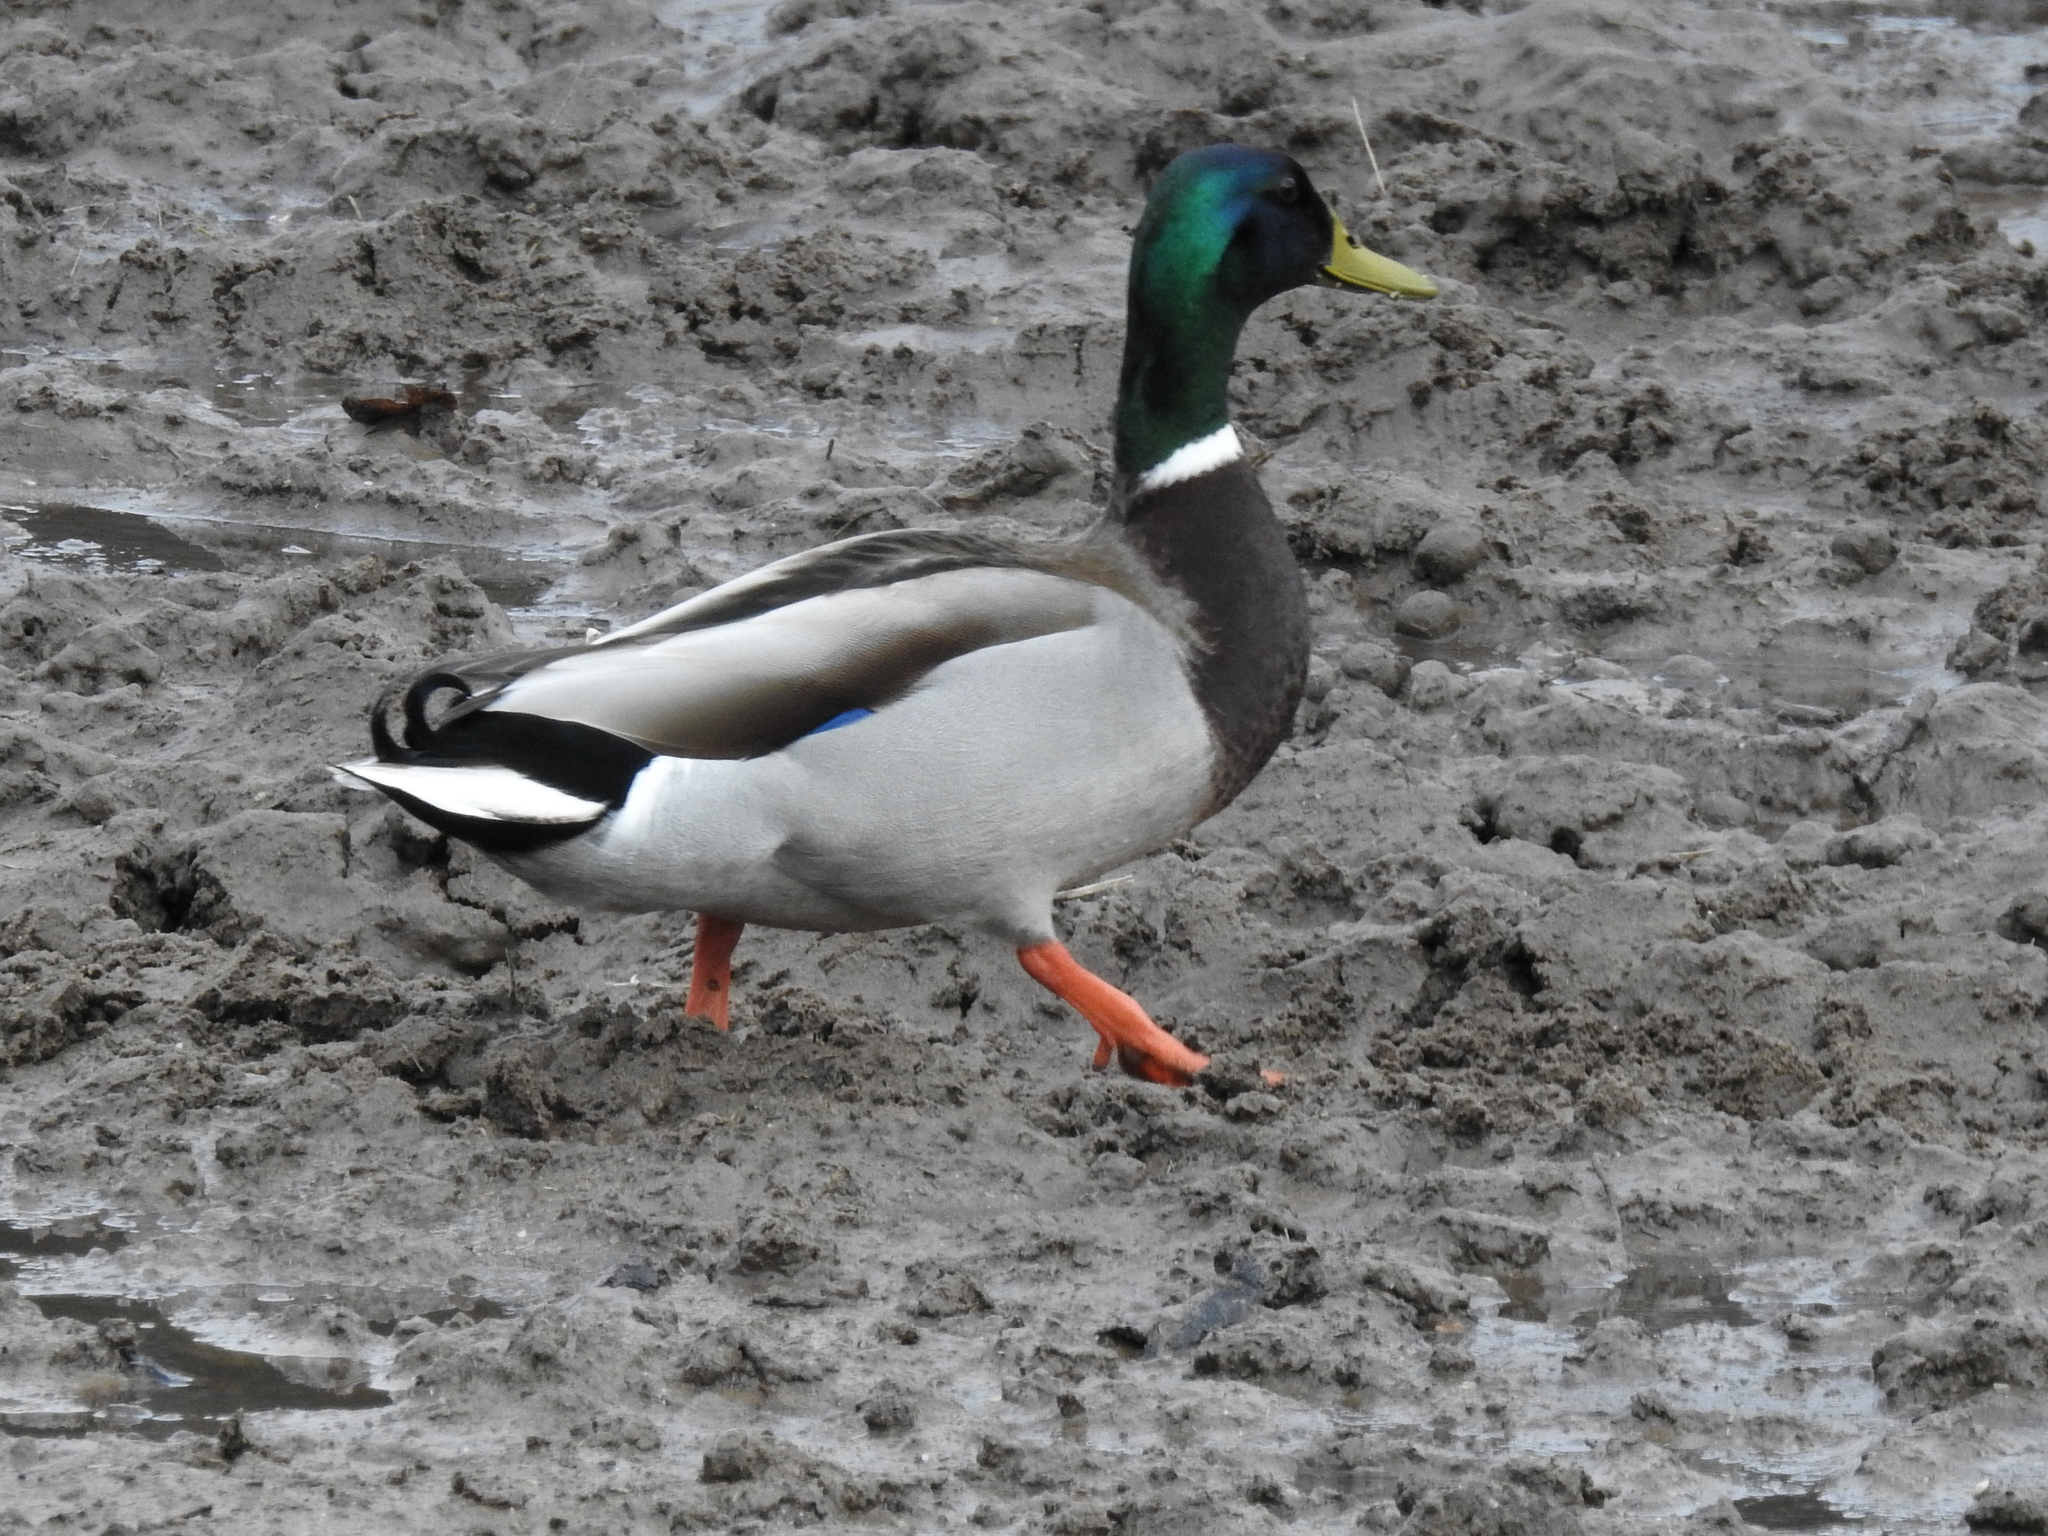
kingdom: Animalia
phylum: Chordata
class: Aves
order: Anseriformes
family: Anatidae
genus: Anas
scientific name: Anas platyrhynchos
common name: Mallard
